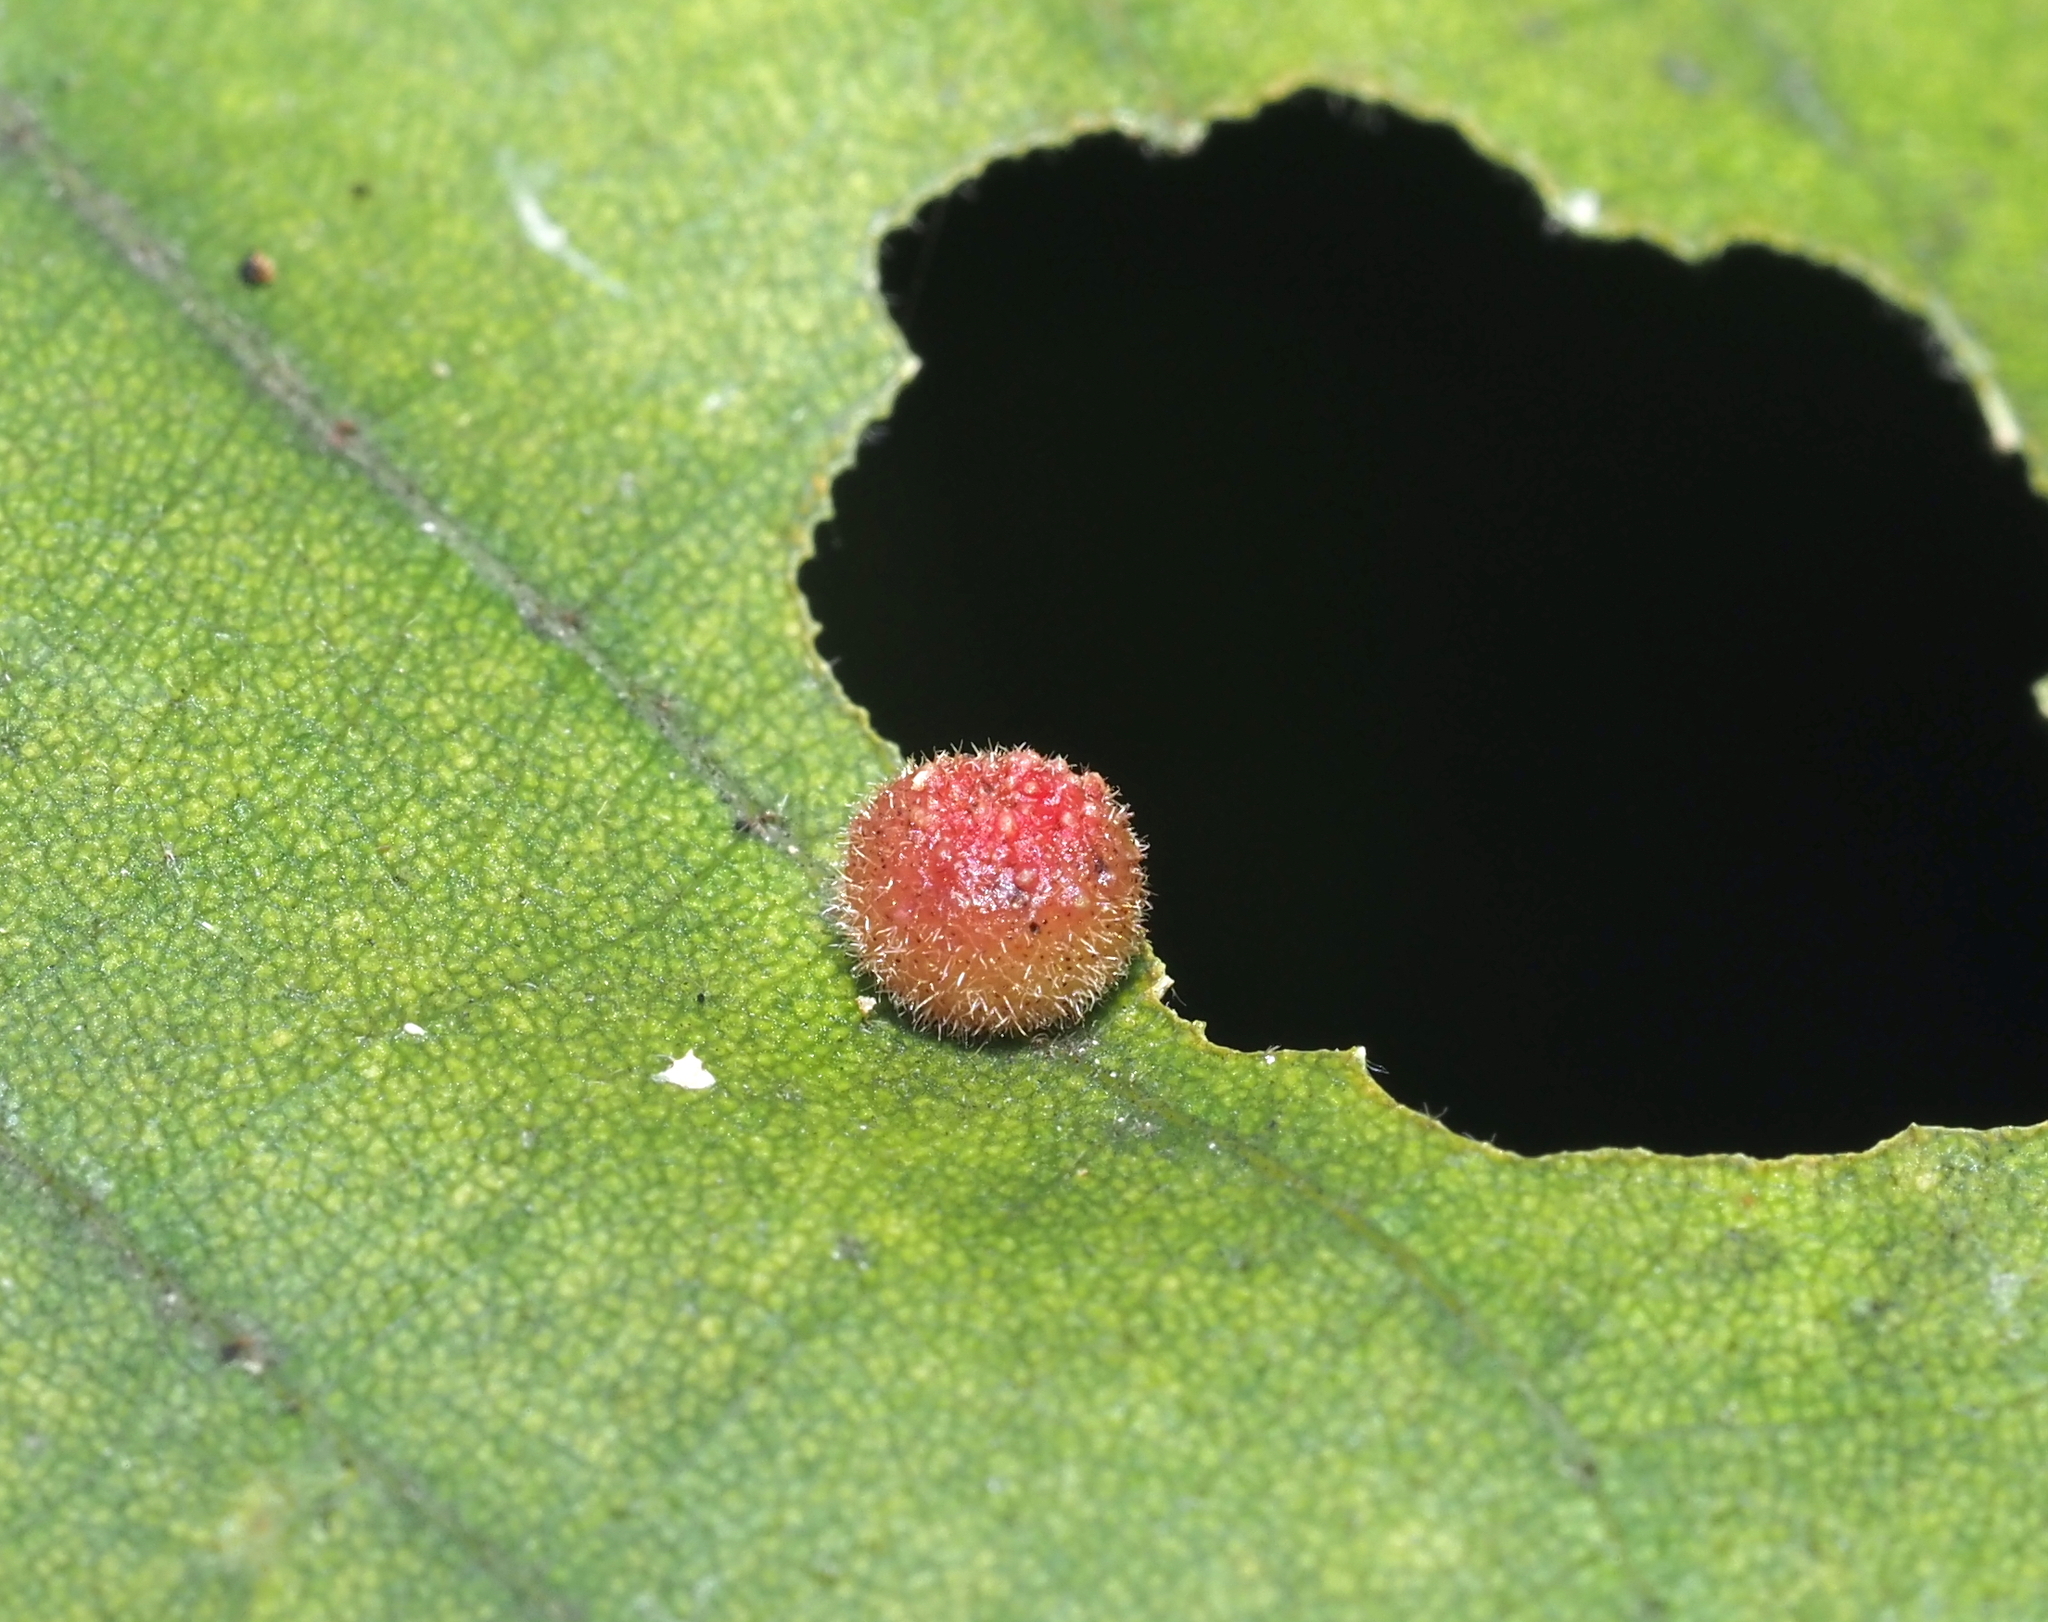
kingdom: Animalia
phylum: Arthropoda
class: Insecta
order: Diptera
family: Cecidomyiidae
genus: Caryomyia
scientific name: Caryomyia turbanella
